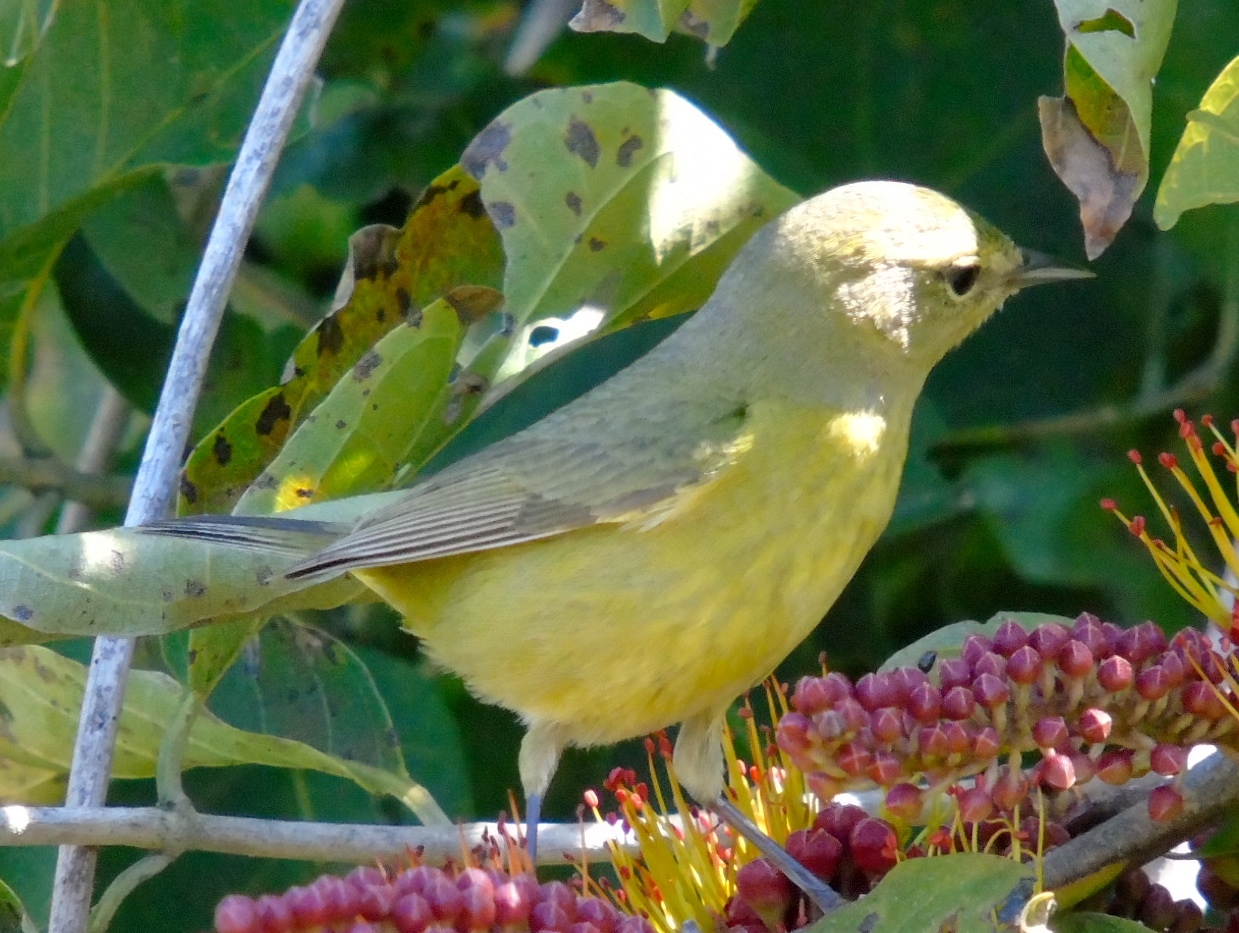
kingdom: Animalia
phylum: Chordata
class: Aves
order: Passeriformes
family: Parulidae
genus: Leiothlypis
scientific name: Leiothlypis celata
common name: Orange-crowned warbler
